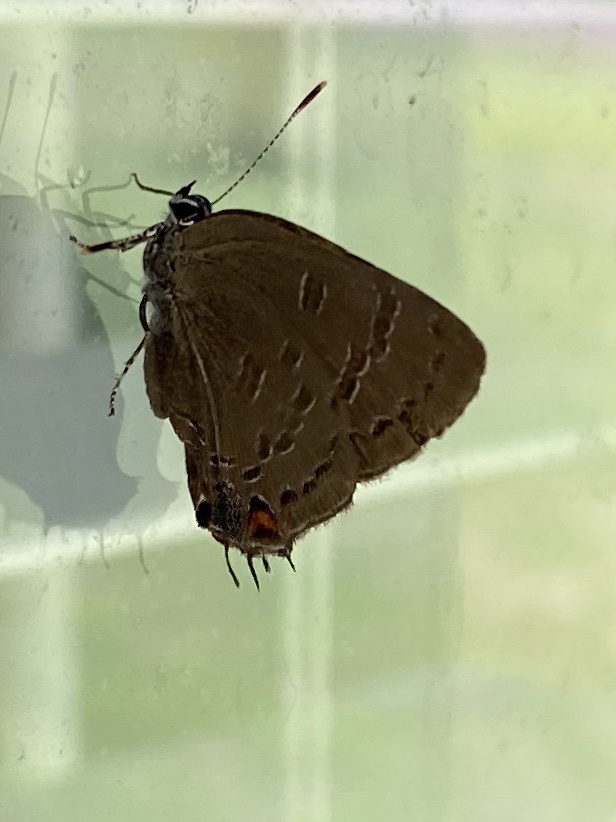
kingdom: Animalia
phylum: Arthropoda
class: Insecta
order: Lepidoptera
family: Lycaenidae
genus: Satyrium
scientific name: Satyrium calanus
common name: Banded hairstreak
